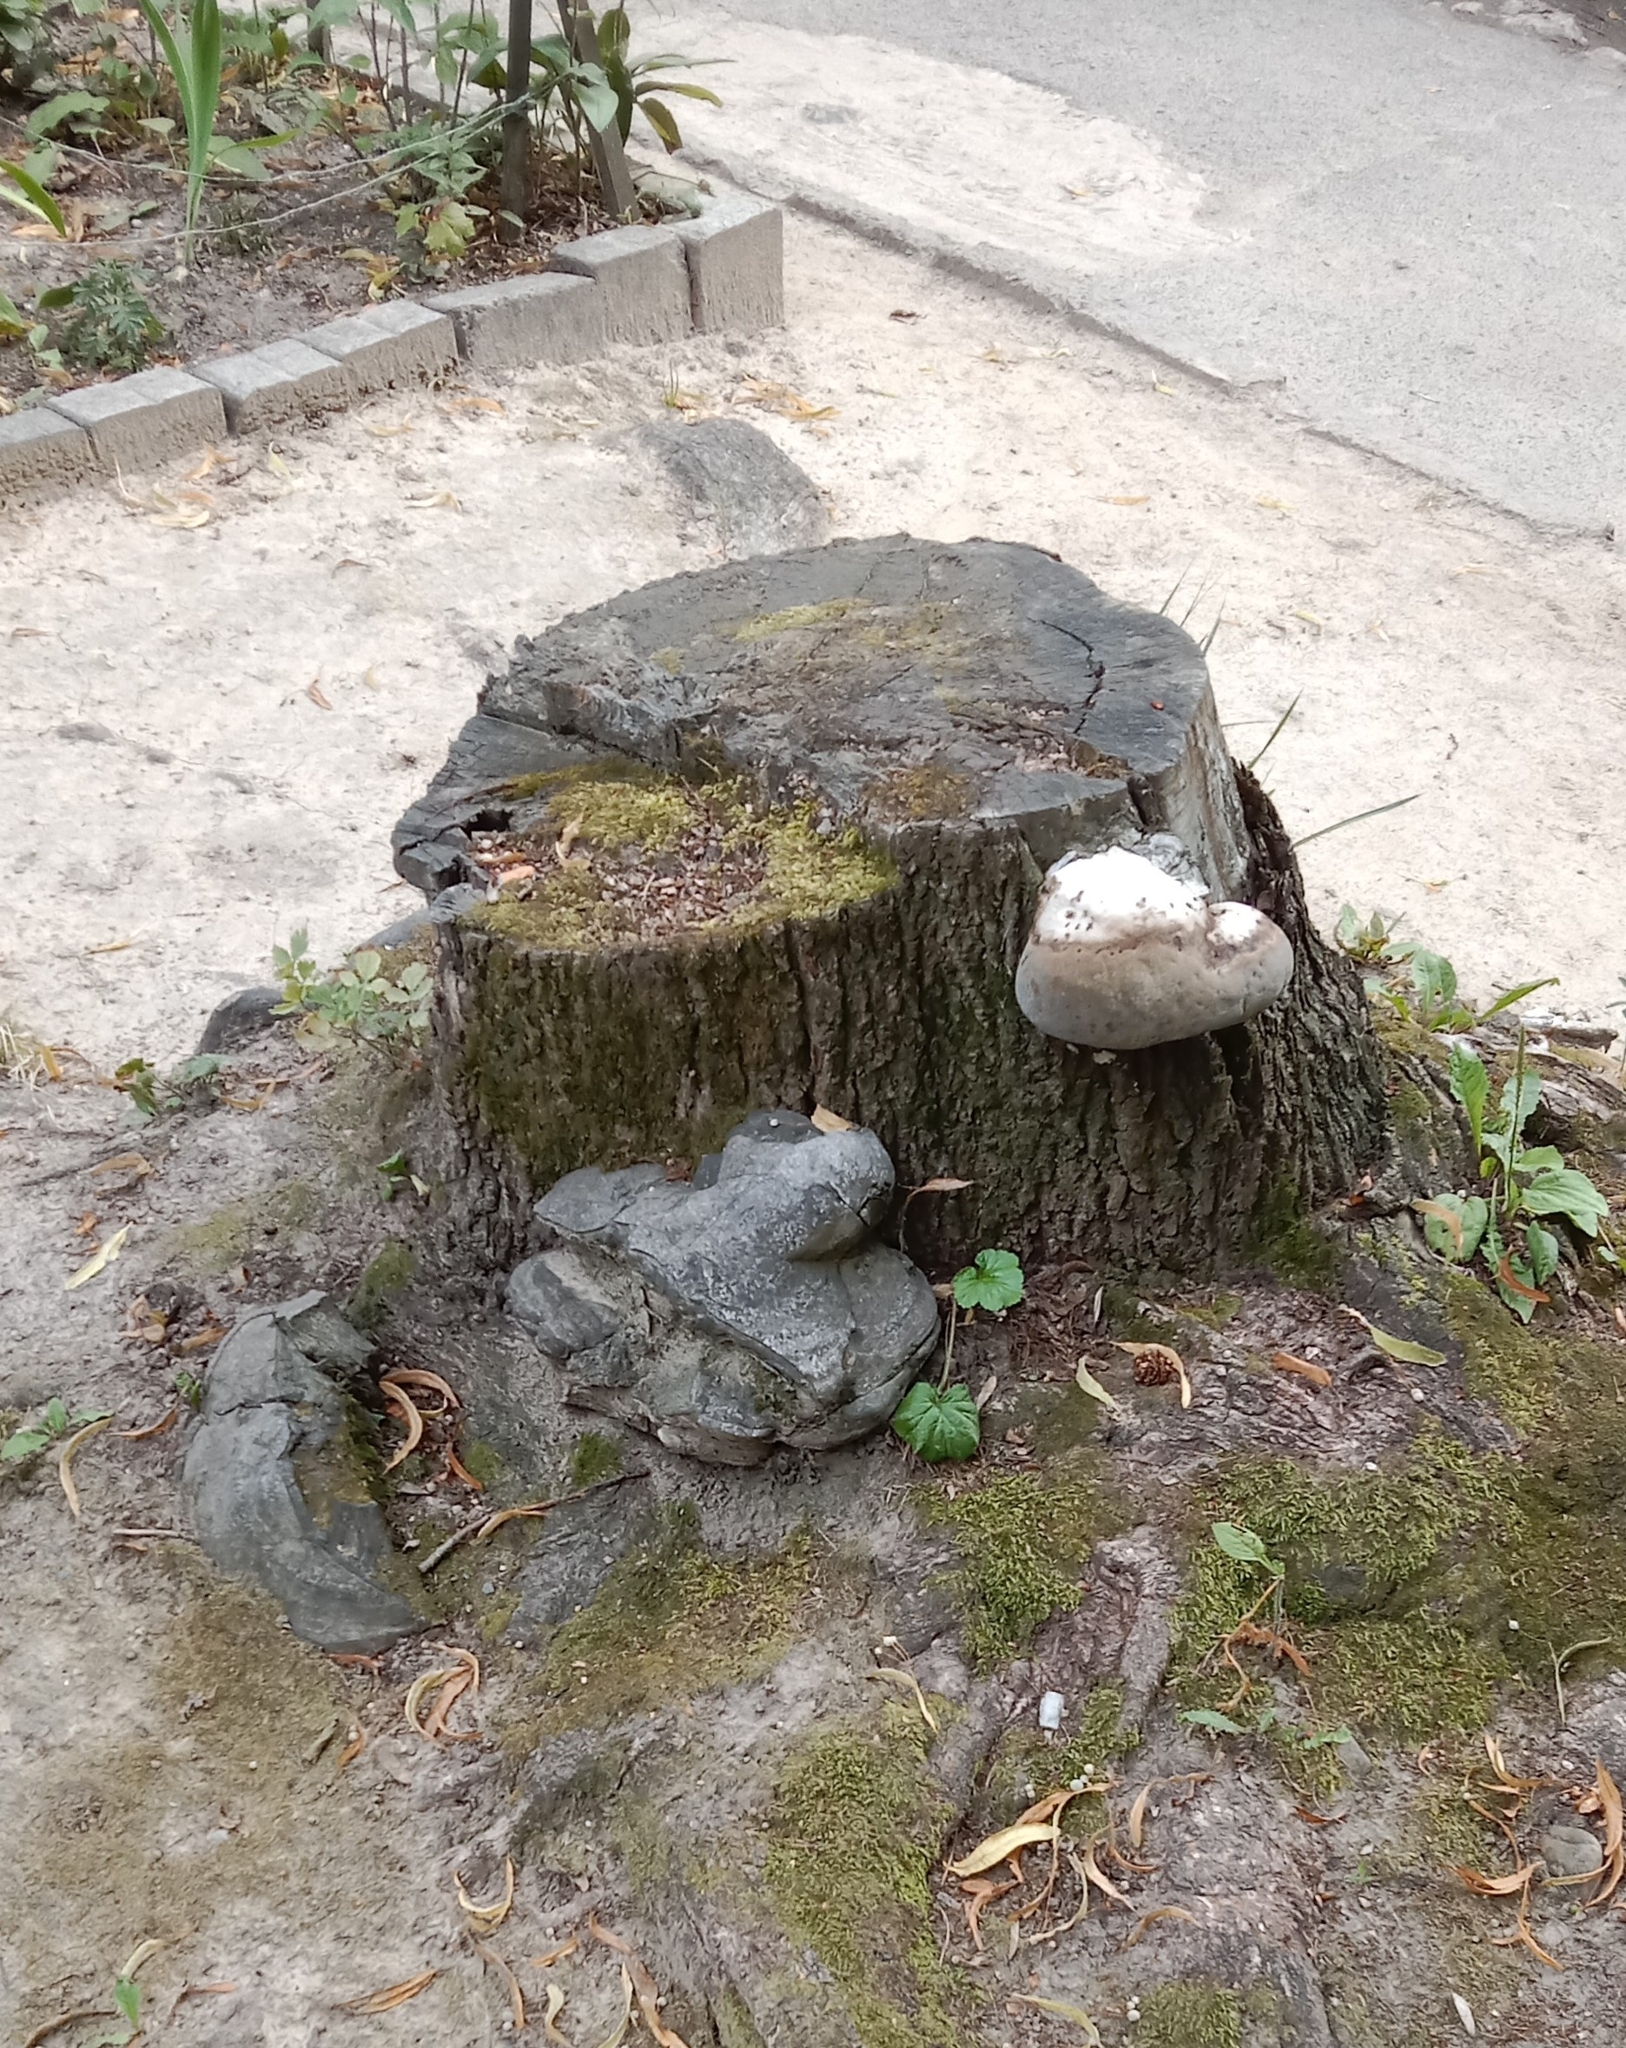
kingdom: Fungi
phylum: Basidiomycota
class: Agaricomycetes
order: Polyporales
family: Polyporaceae
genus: Fomes
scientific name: Fomes fomentarius
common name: Hoof fungus
